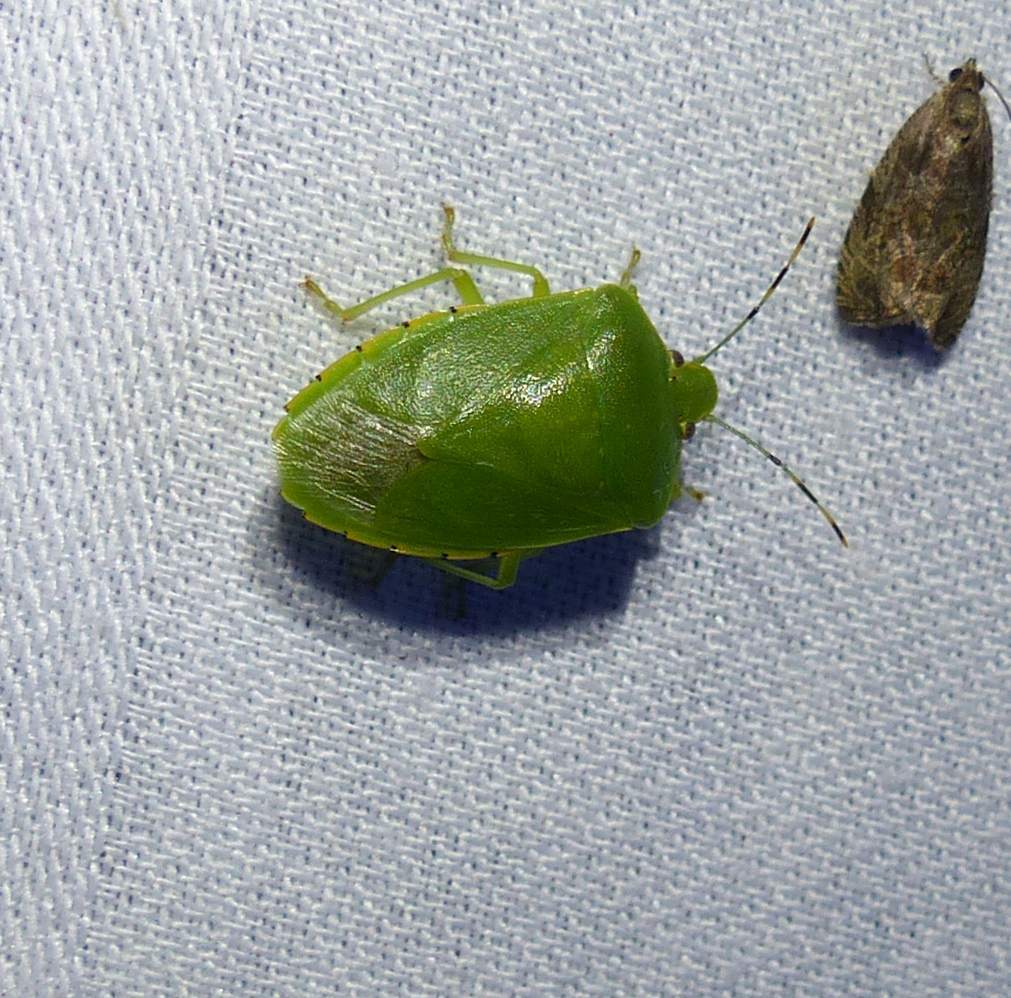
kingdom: Animalia
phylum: Arthropoda
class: Insecta
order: Hemiptera
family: Pentatomidae
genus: Chinavia
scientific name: Chinavia hilaris
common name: Green stink bug
